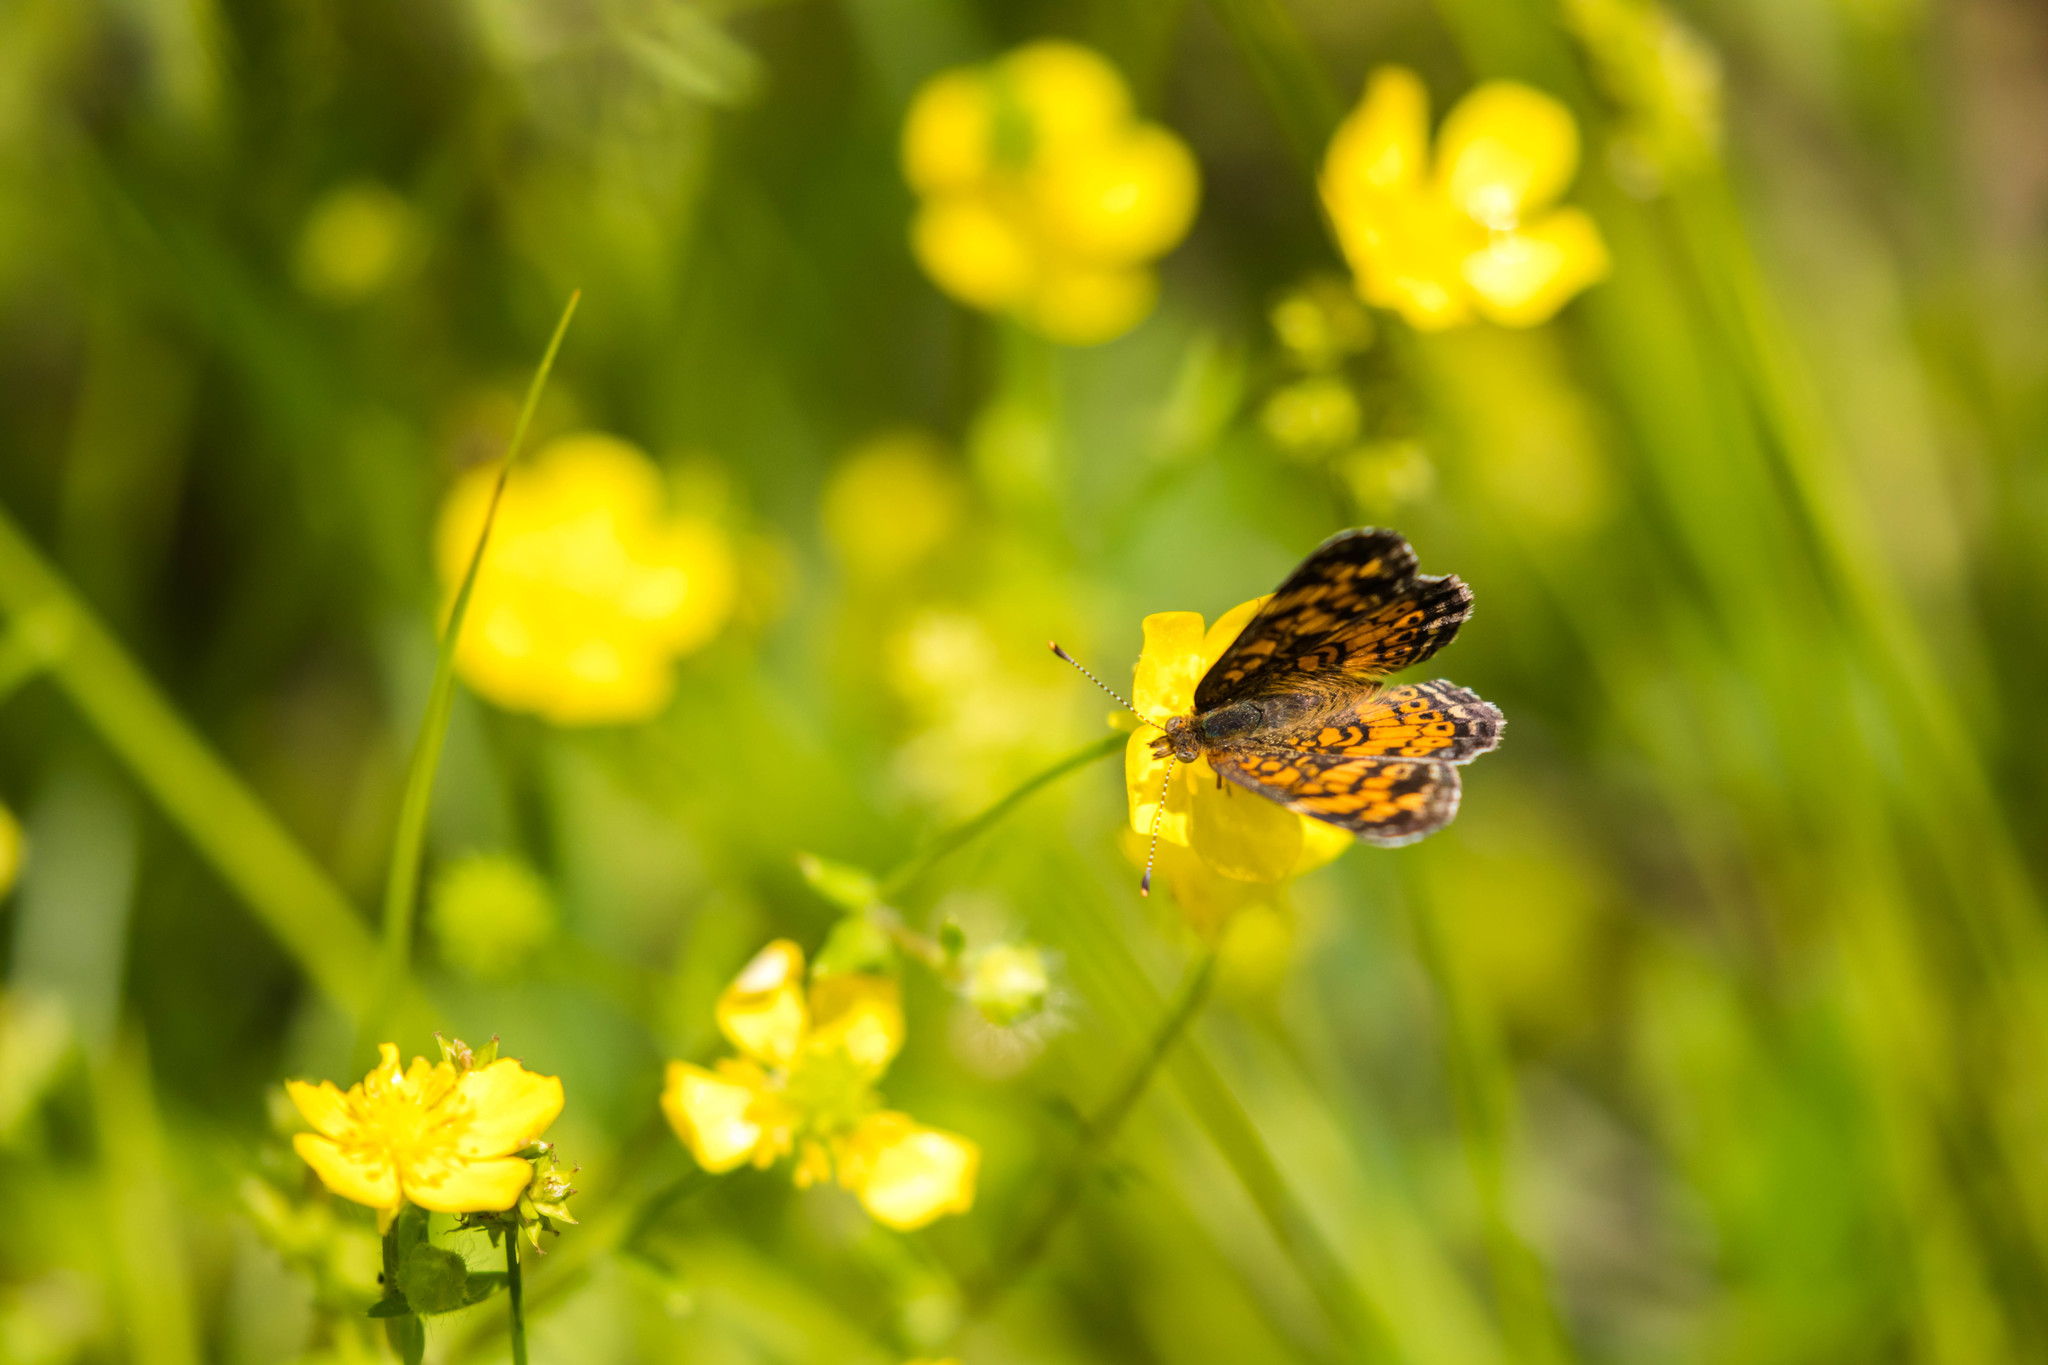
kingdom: Animalia
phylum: Arthropoda
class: Insecta
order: Lepidoptera
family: Nymphalidae
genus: Phyciodes
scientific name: Phyciodes tharos
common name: Pearl crescent
